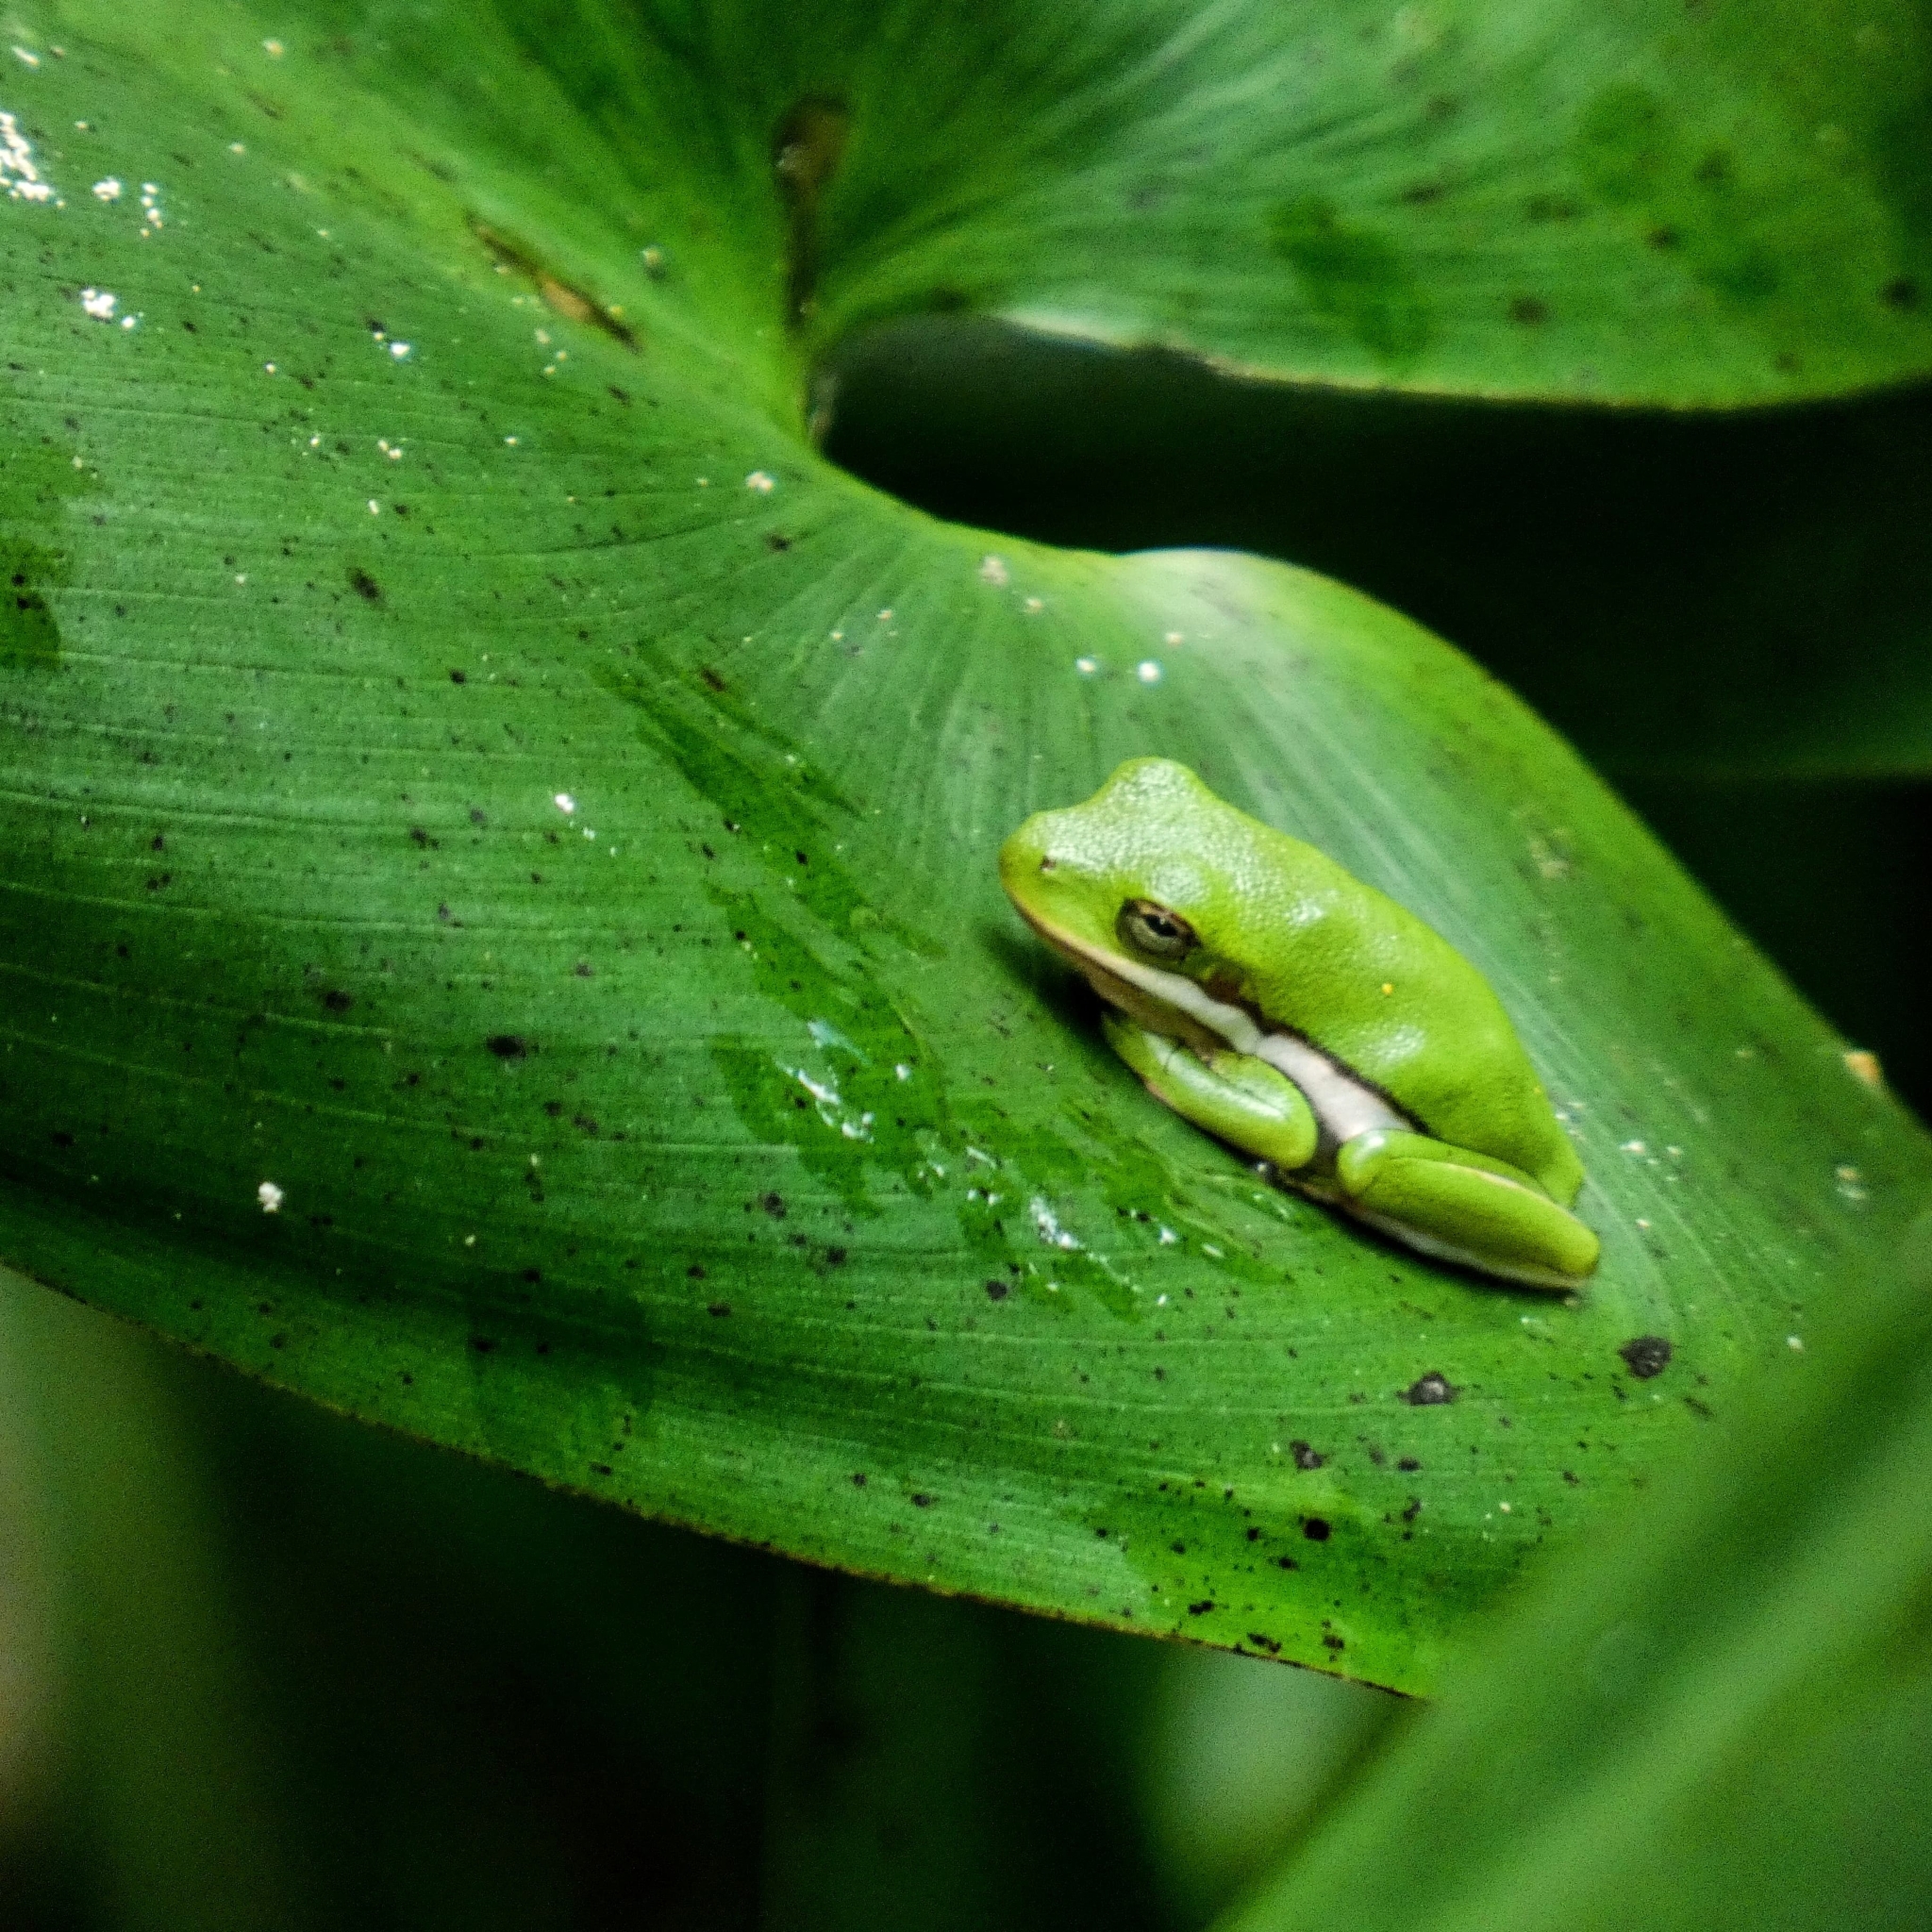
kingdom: Animalia
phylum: Chordata
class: Amphibia
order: Anura
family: Hylidae
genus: Dryophytes
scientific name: Dryophytes cinereus
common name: Green treefrog
